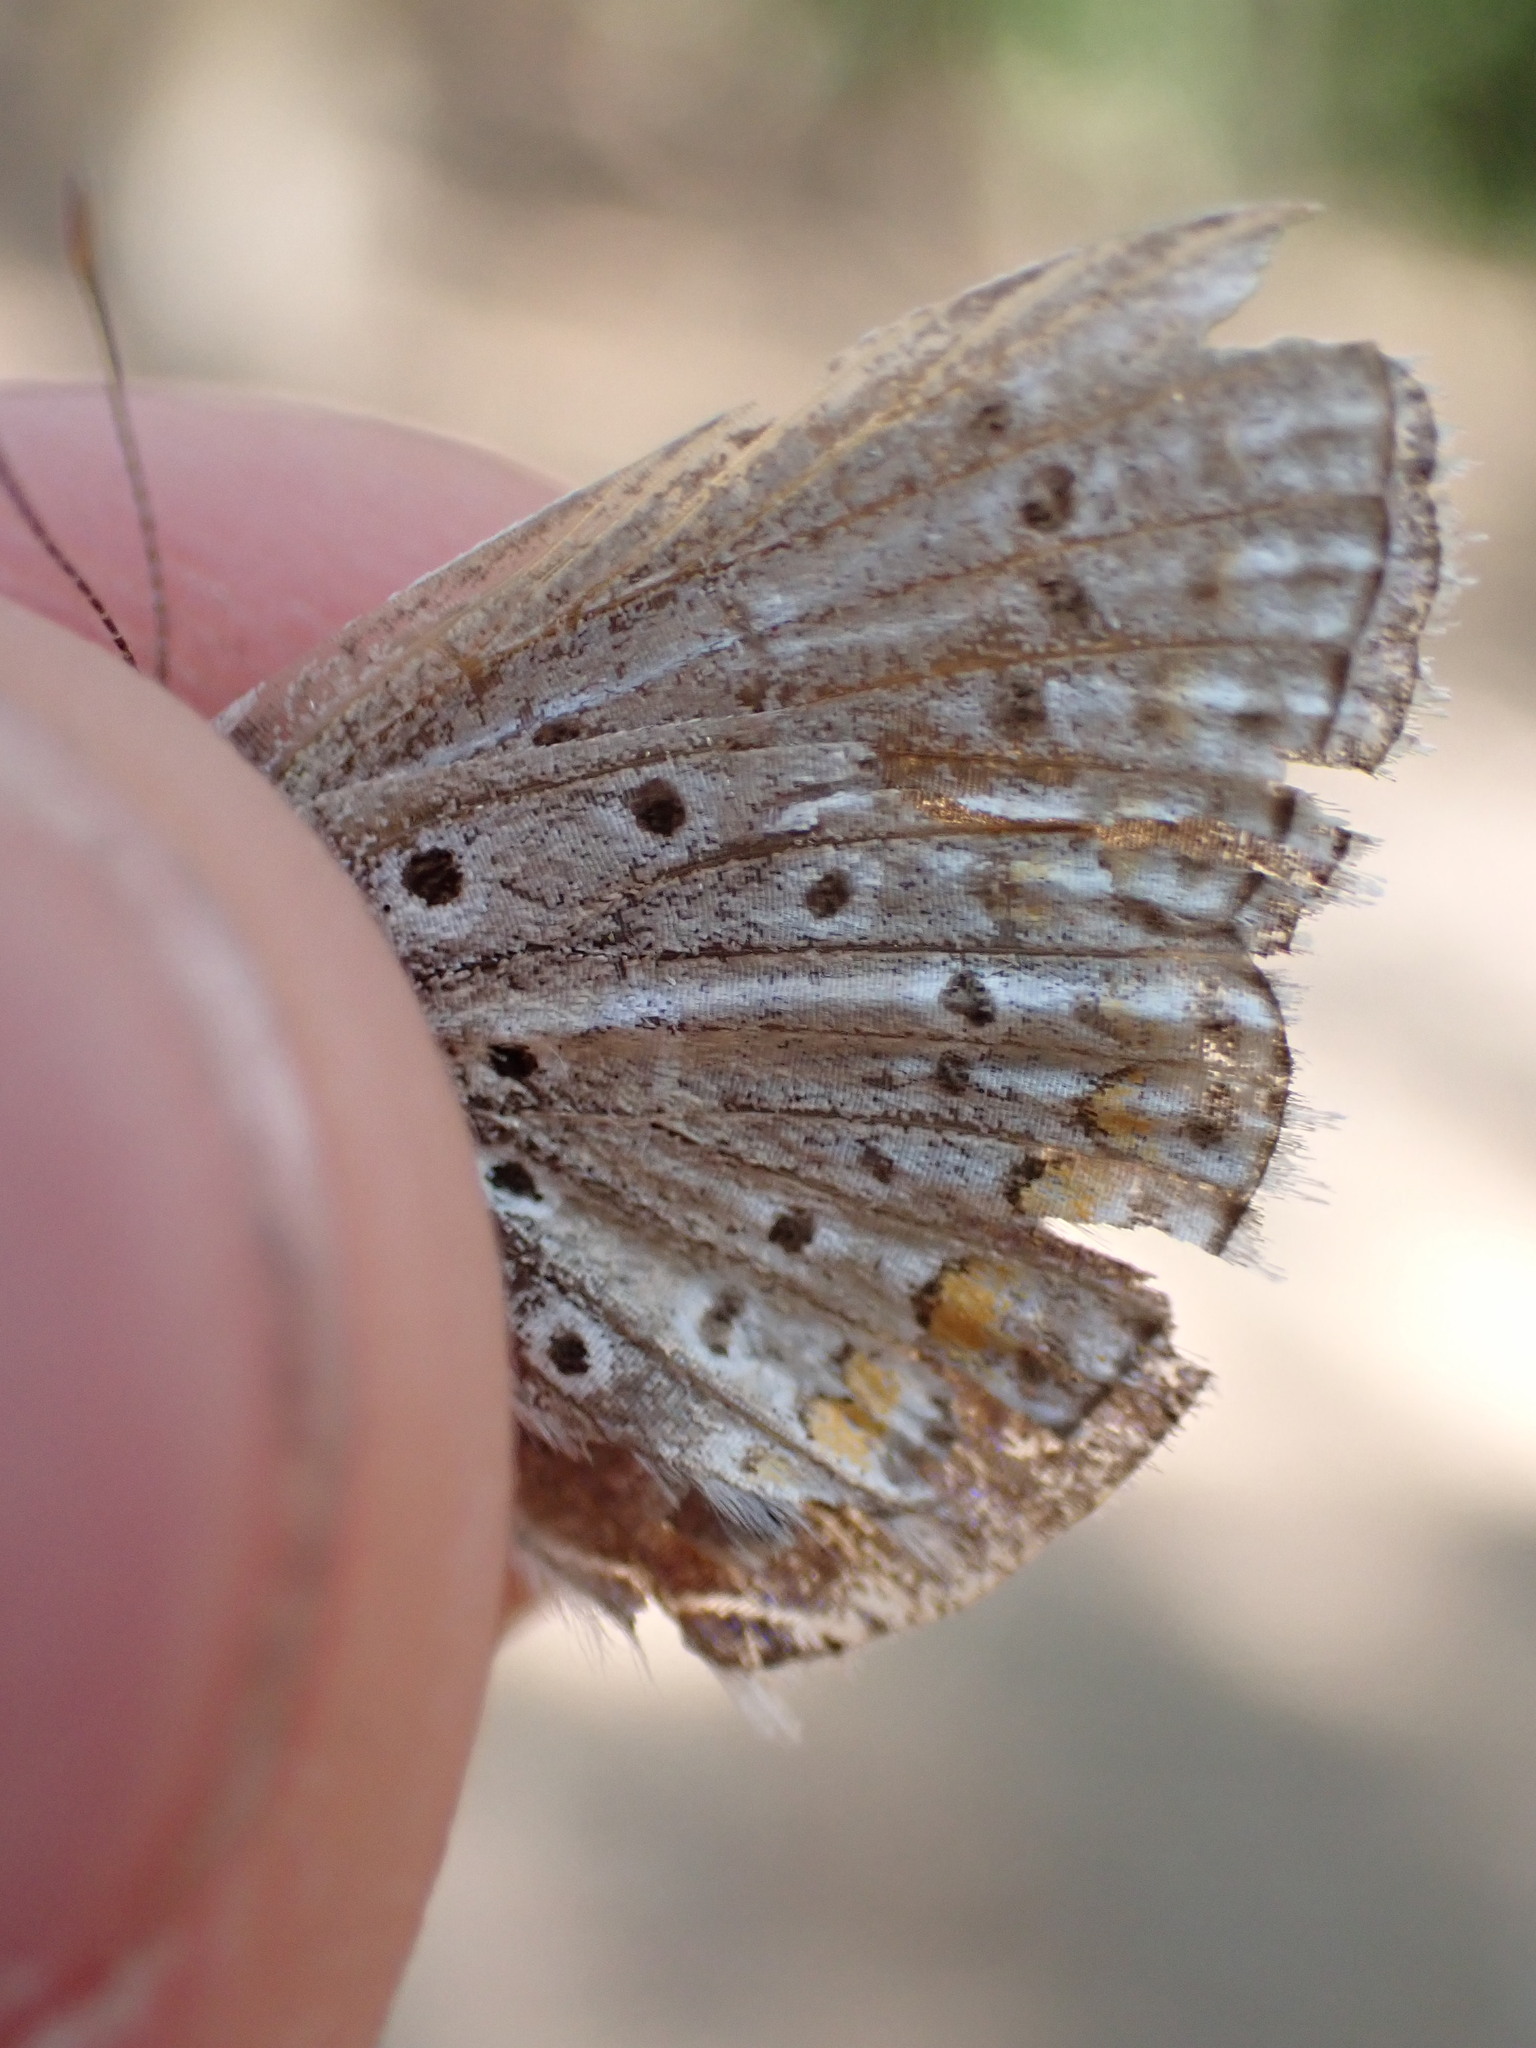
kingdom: Animalia
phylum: Arthropoda
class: Insecta
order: Lepidoptera
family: Lycaenidae
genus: Polyommatus
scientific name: Polyommatus icarus
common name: Common blue
